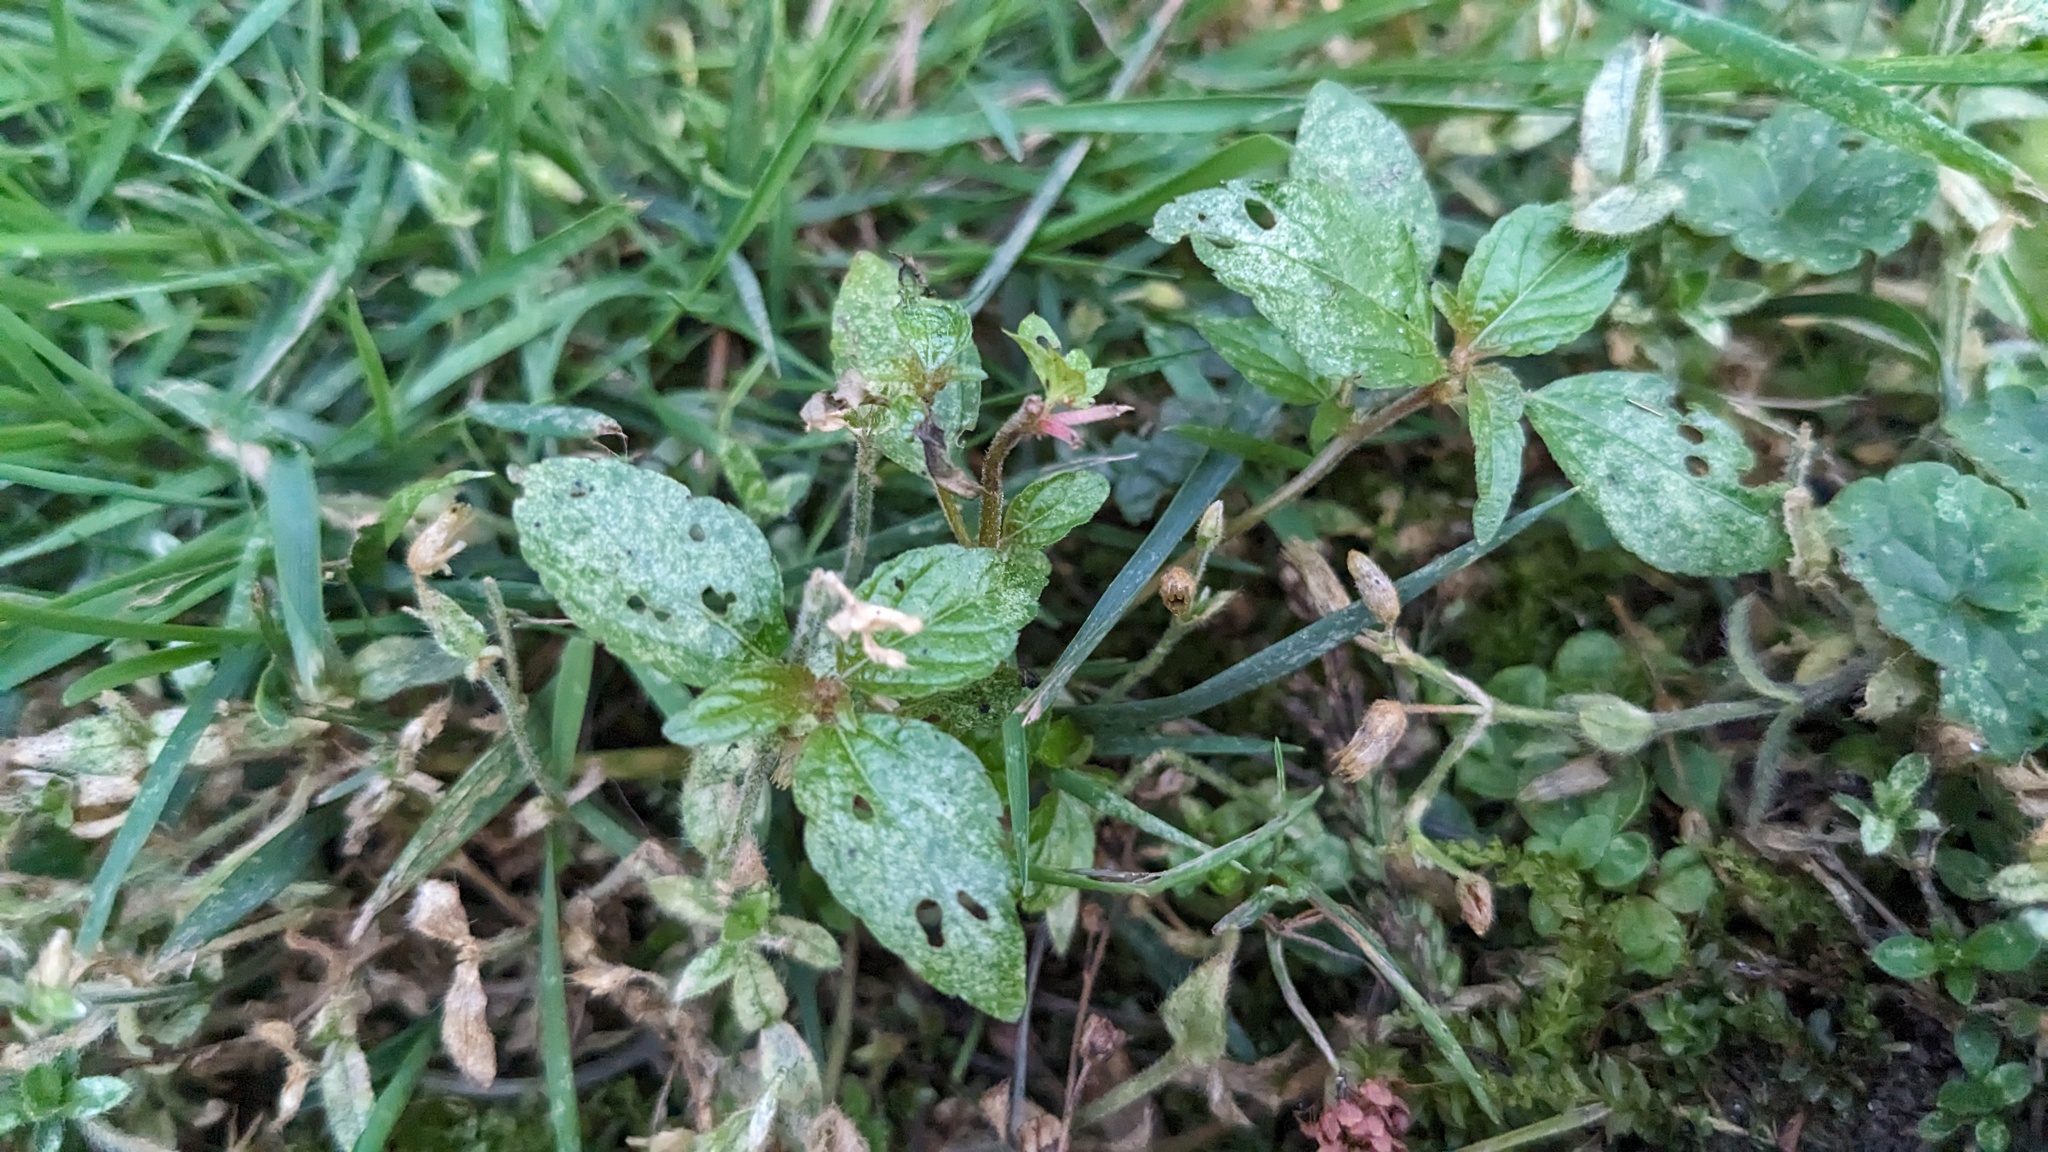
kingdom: Plantae
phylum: Tracheophyta
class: Magnoliopsida
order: Malpighiales
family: Euphorbiaceae
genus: Acalypha
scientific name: Acalypha rhomboidea
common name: Rhombic copperleaf
